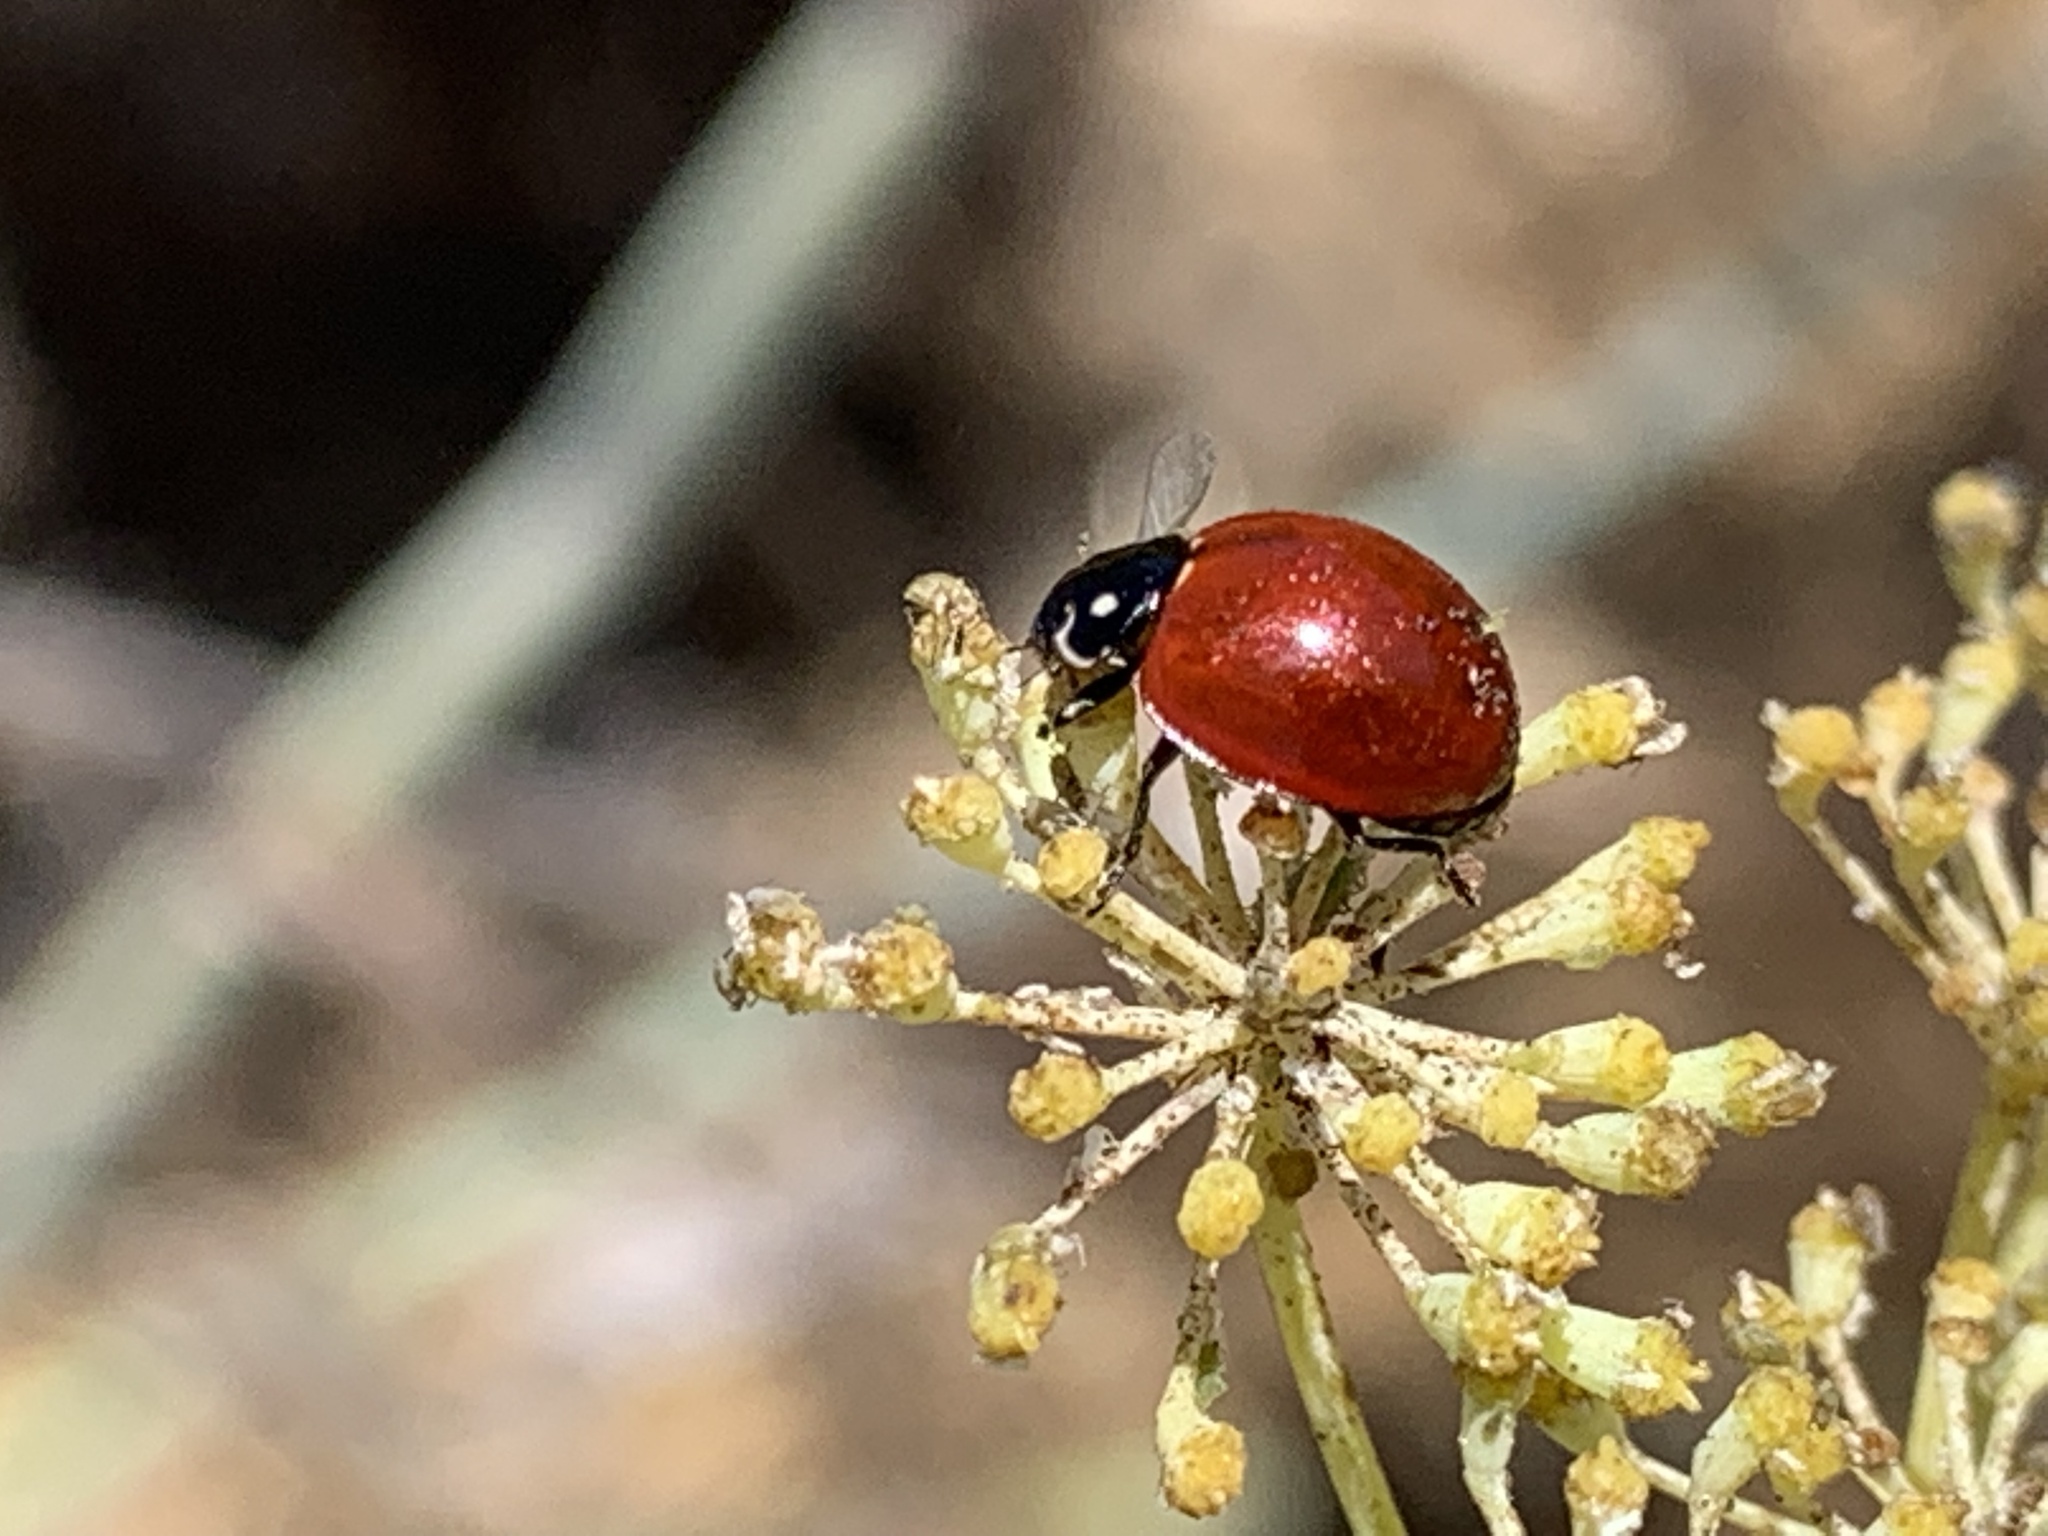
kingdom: Animalia
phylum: Arthropoda
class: Insecta
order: Coleoptera
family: Coccinellidae
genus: Cycloneda
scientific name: Cycloneda sanguinea
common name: Ladybird beetle
